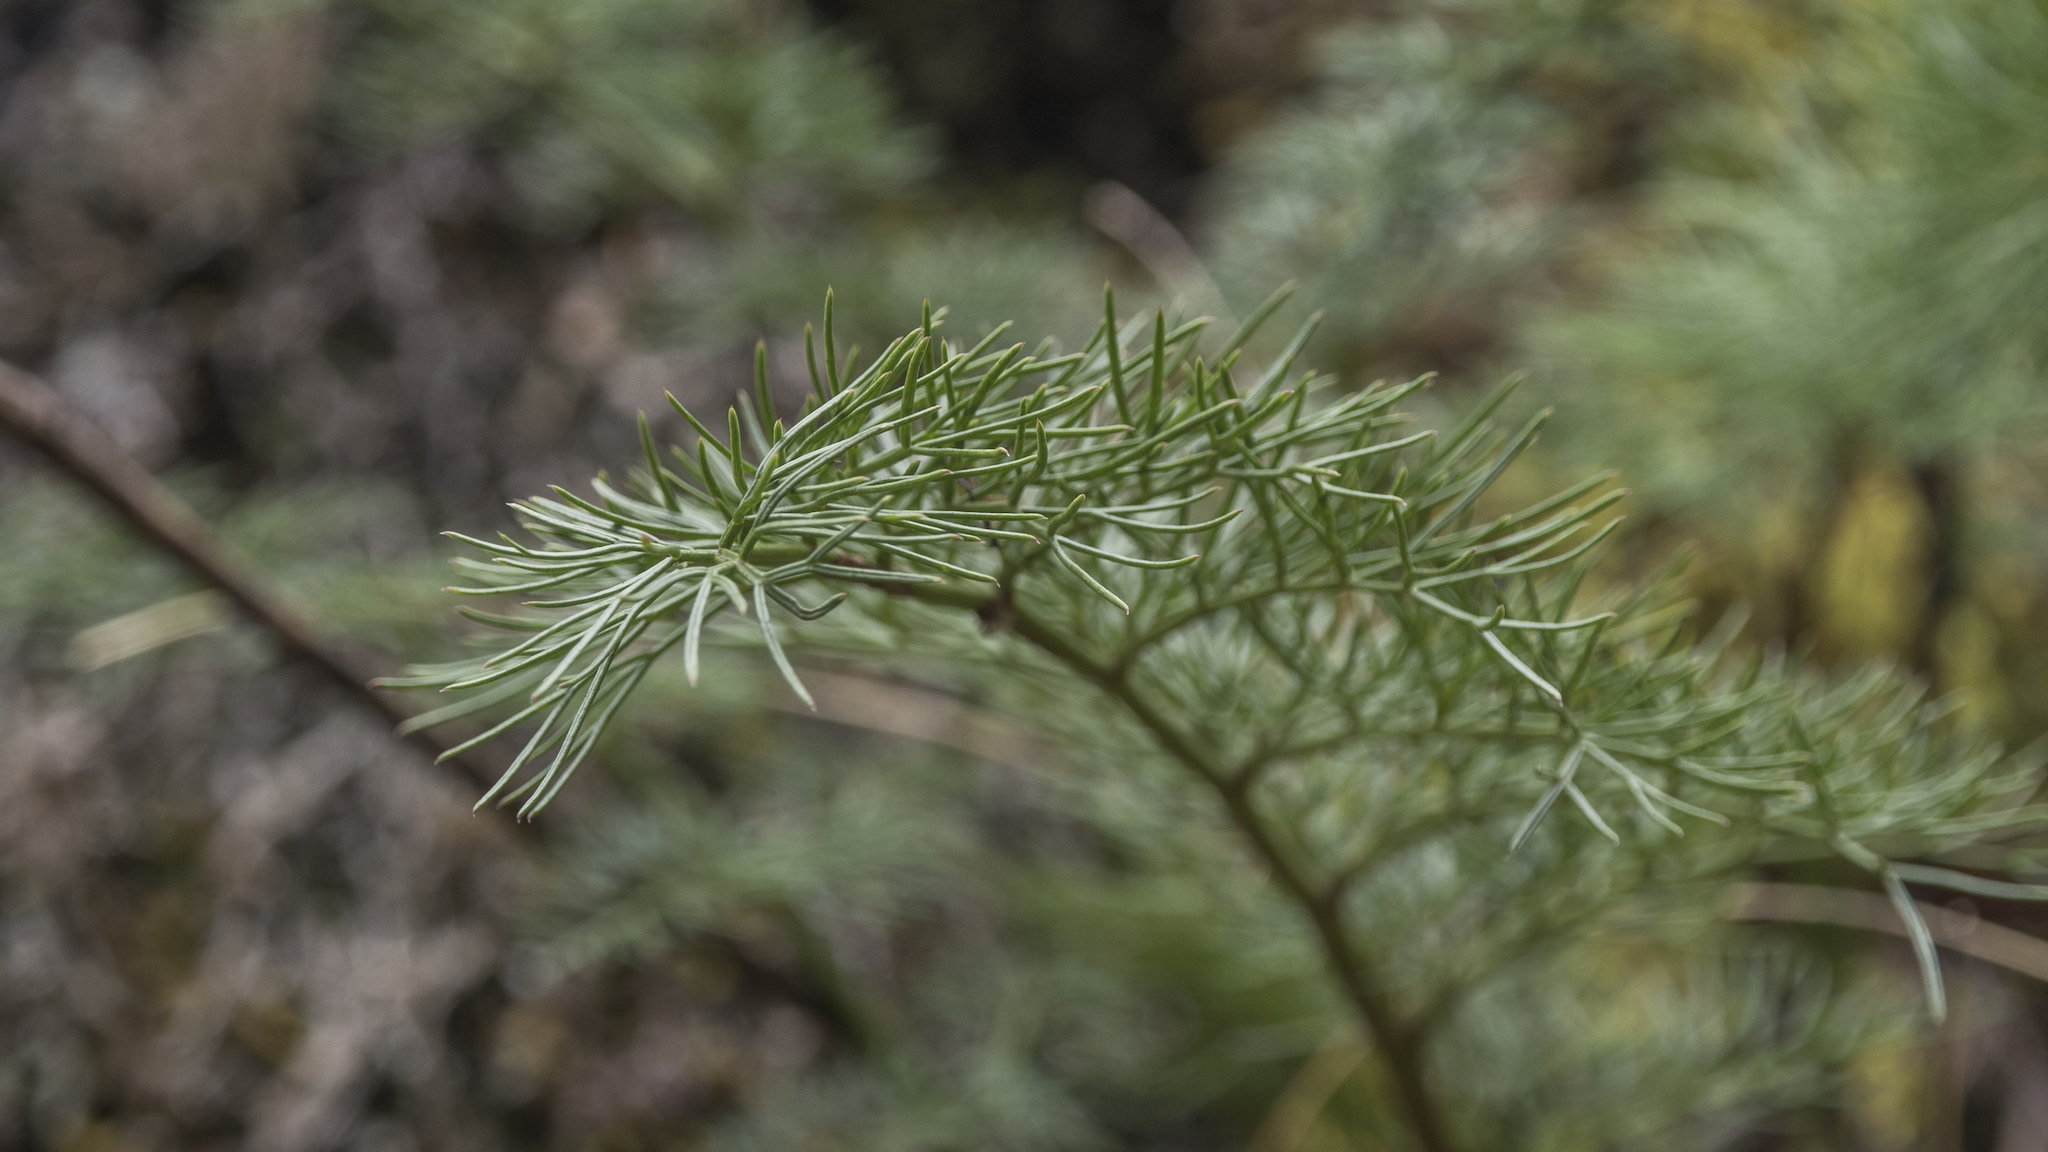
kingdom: Plantae
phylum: Tracheophyta
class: Magnoliopsida
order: Apiales
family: Apiaceae
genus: Anisotome
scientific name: Anisotome cauticola
